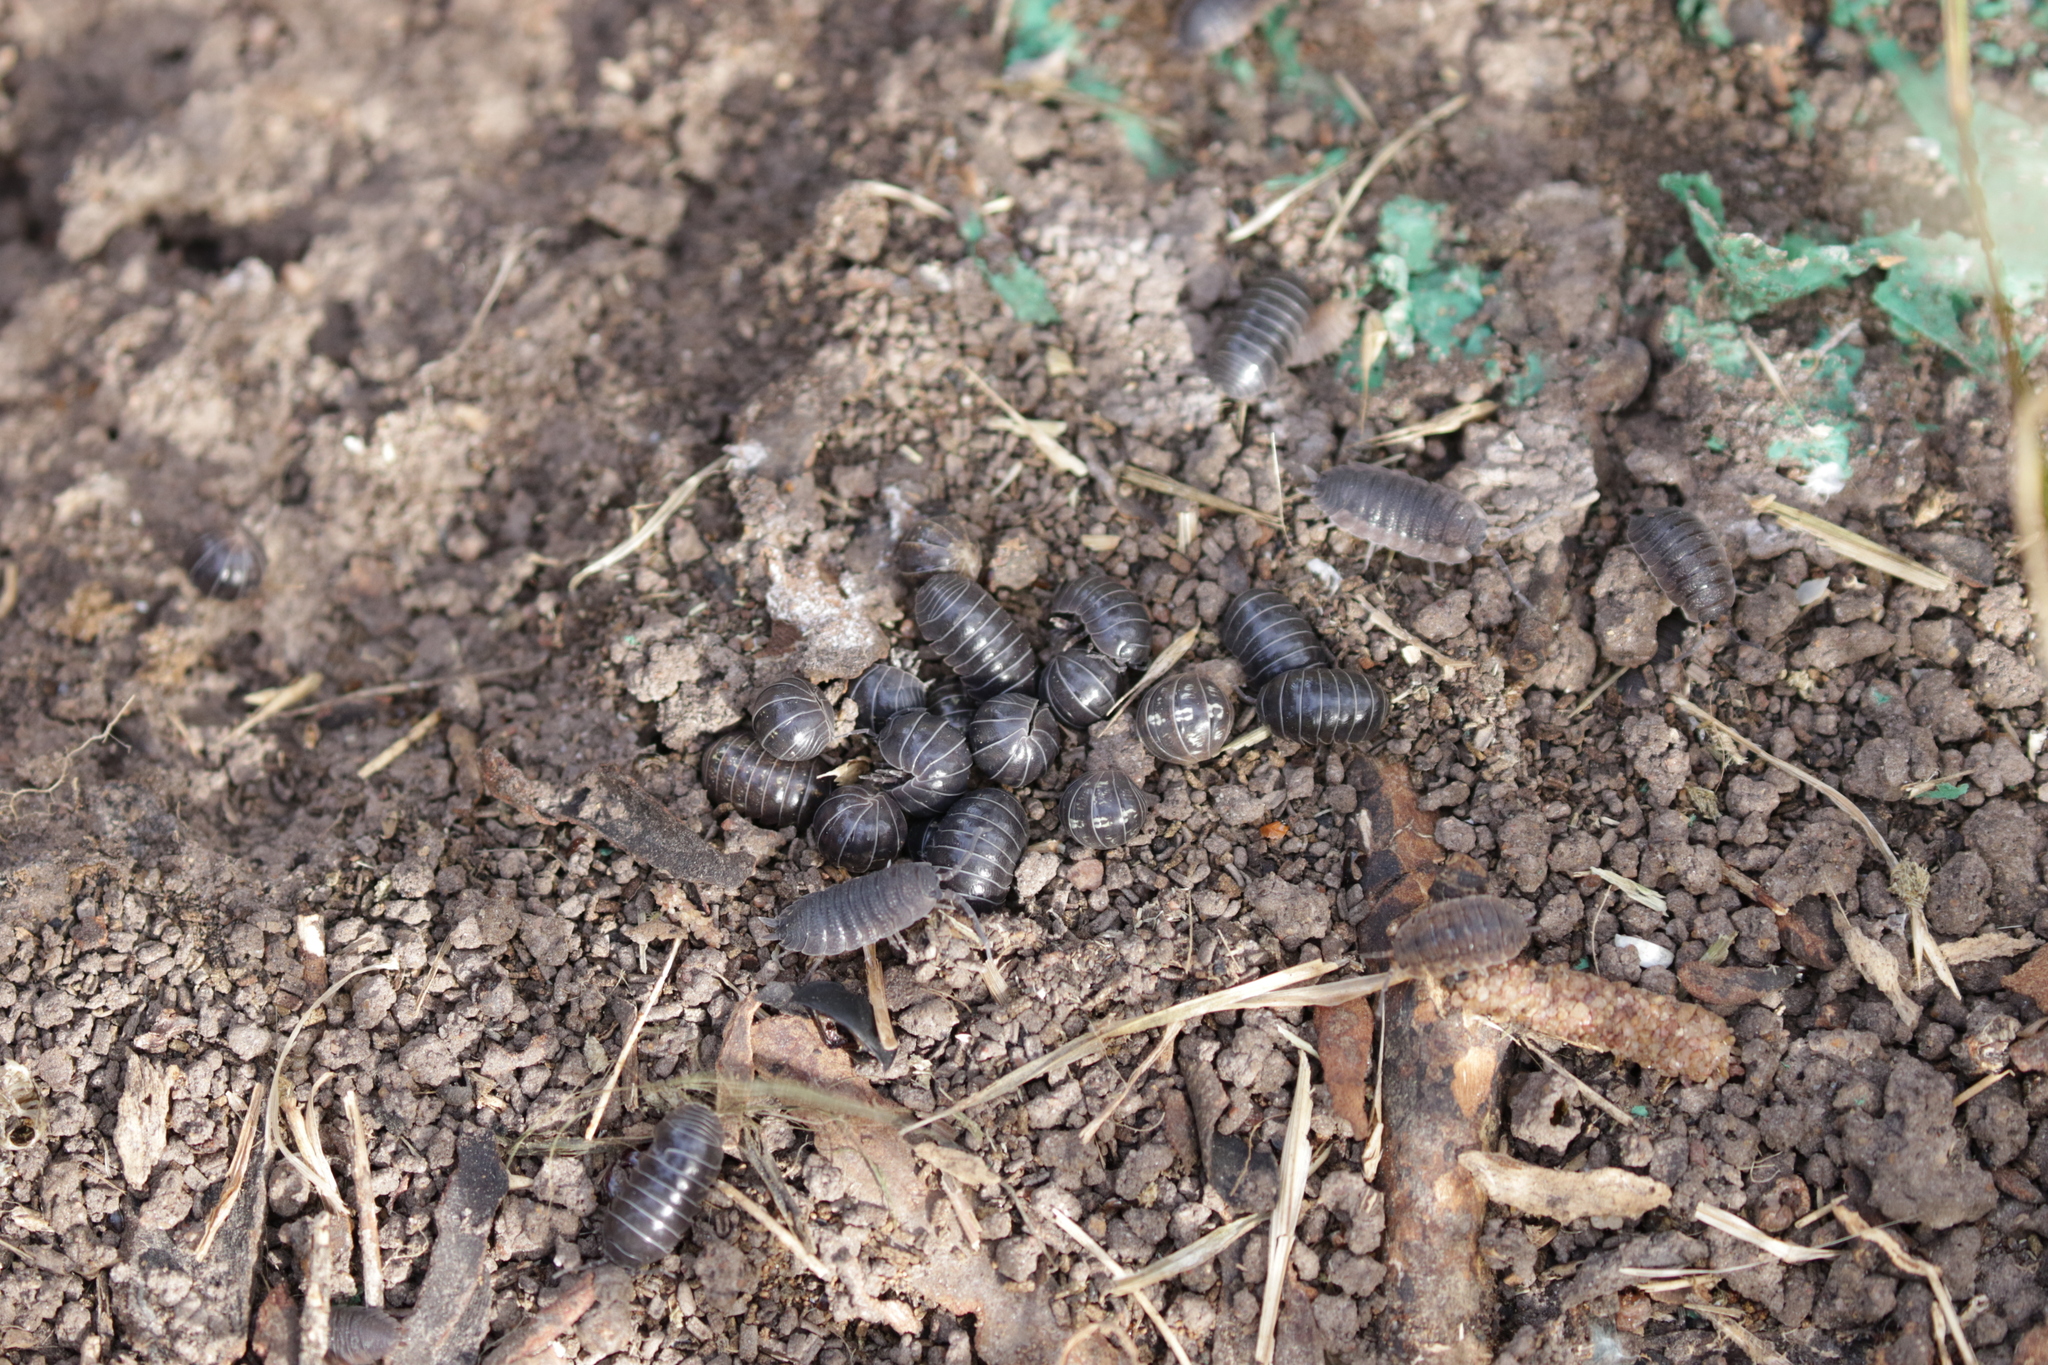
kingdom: Animalia
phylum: Arthropoda
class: Malacostraca
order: Isopoda
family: Armadillidiidae
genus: Armadillidium
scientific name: Armadillidium vulgare
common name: Common pill woodlouse
